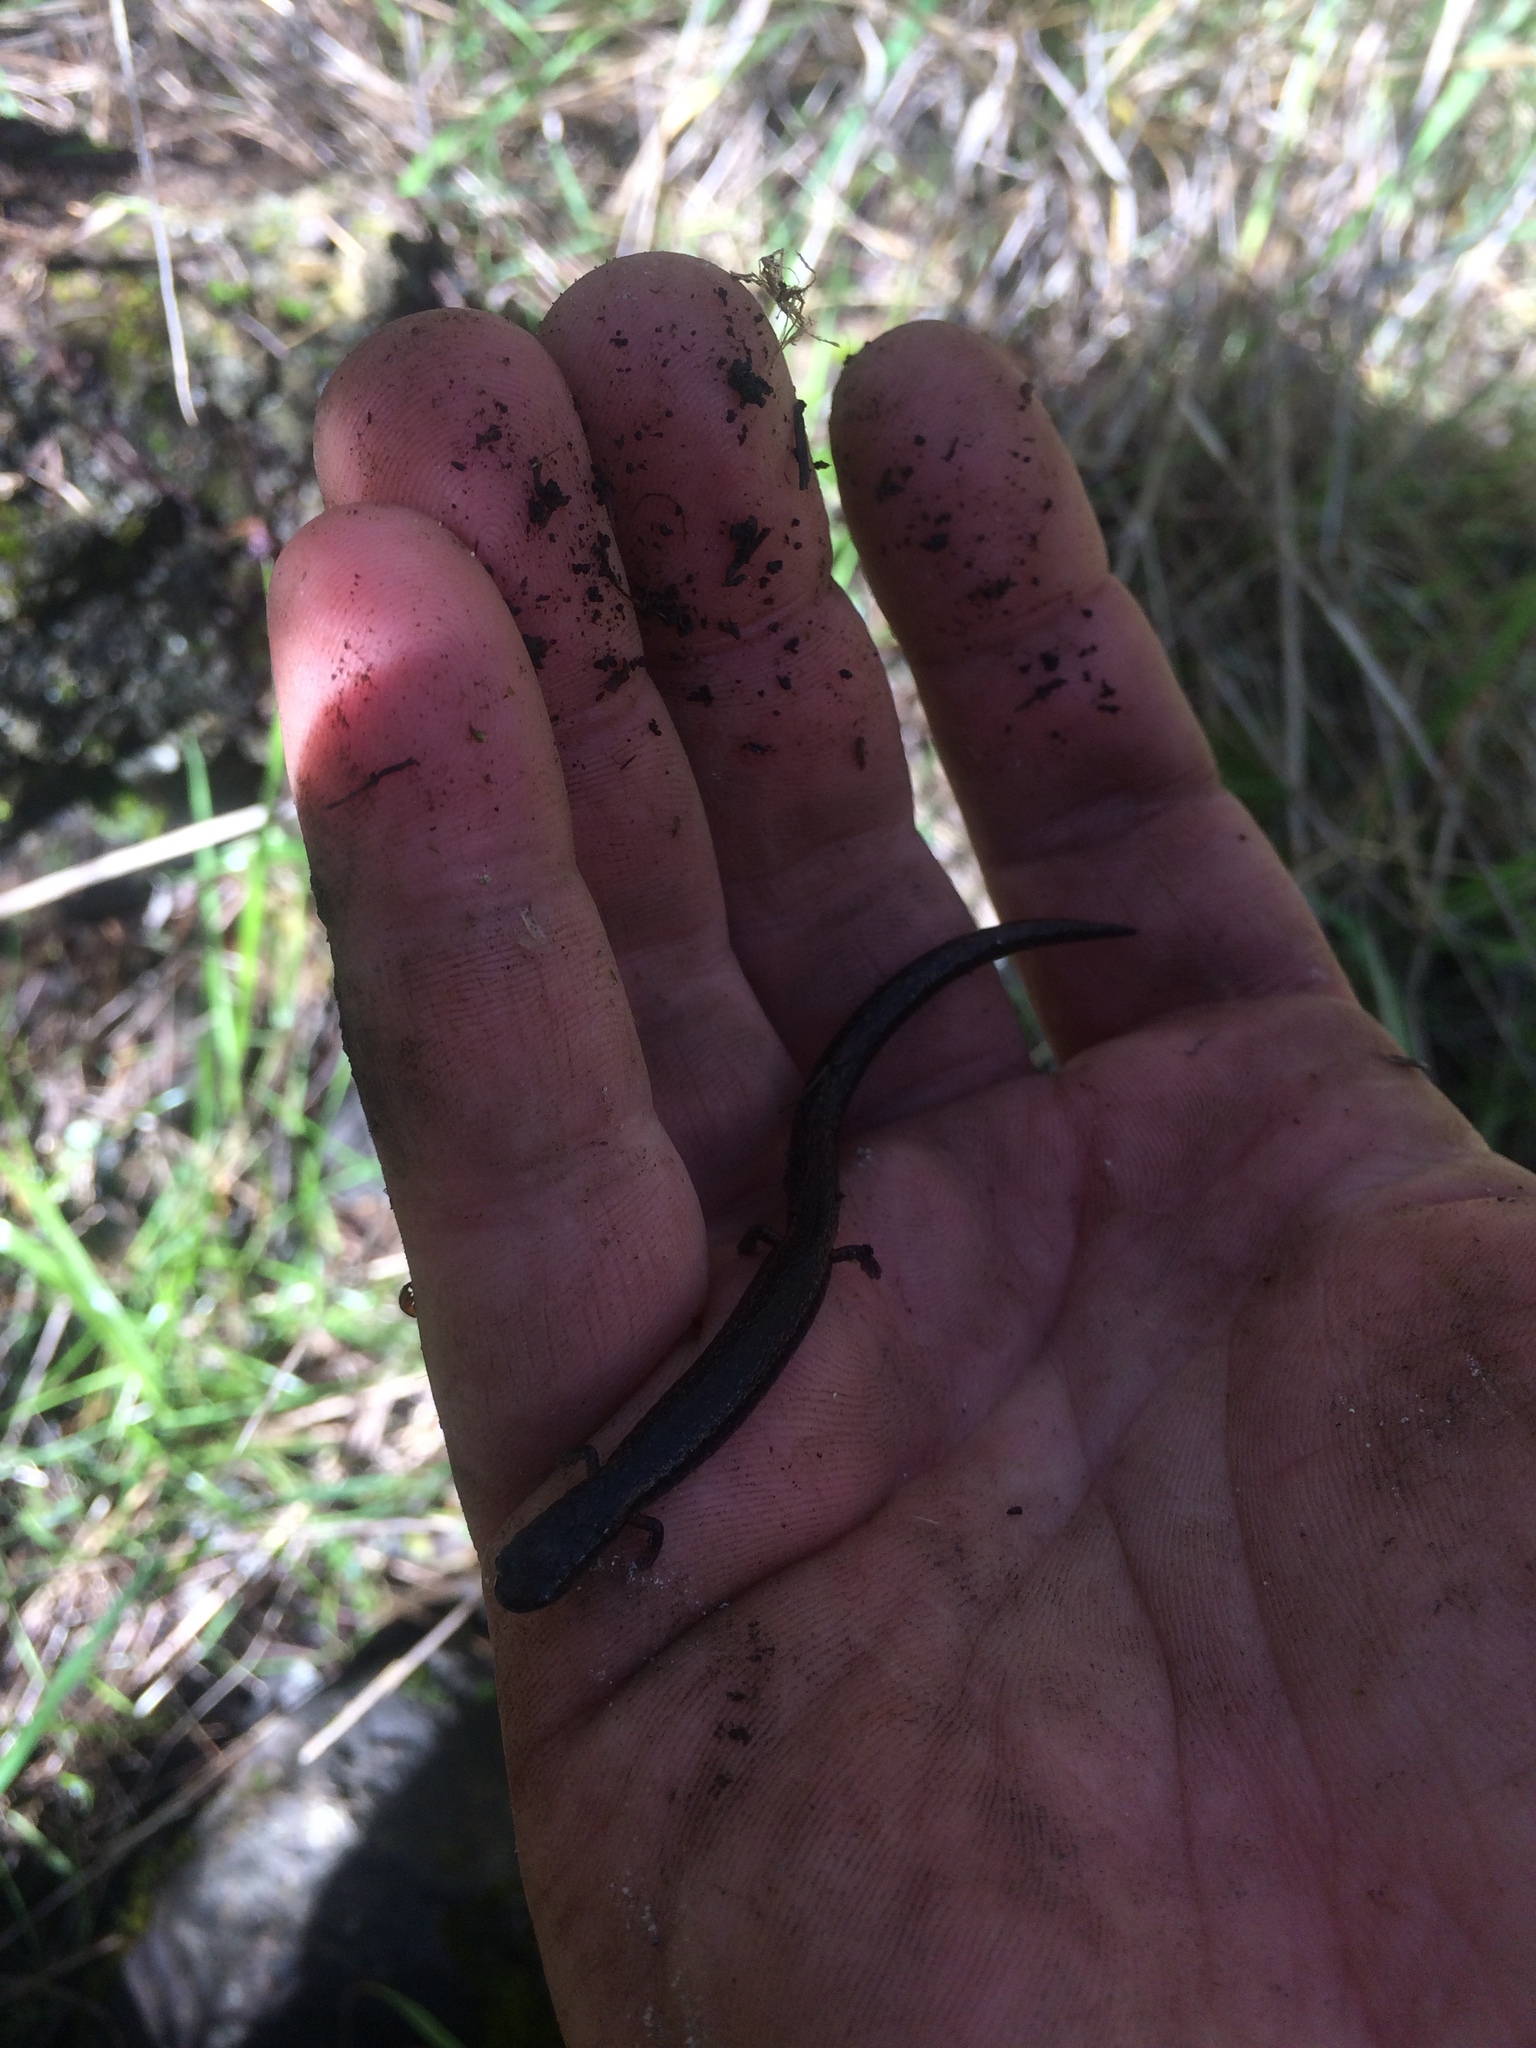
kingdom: Animalia
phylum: Chordata
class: Amphibia
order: Caudata
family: Plethodontidae
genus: Batrachoseps
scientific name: Batrachoseps attenuatus
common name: California slender salamander
